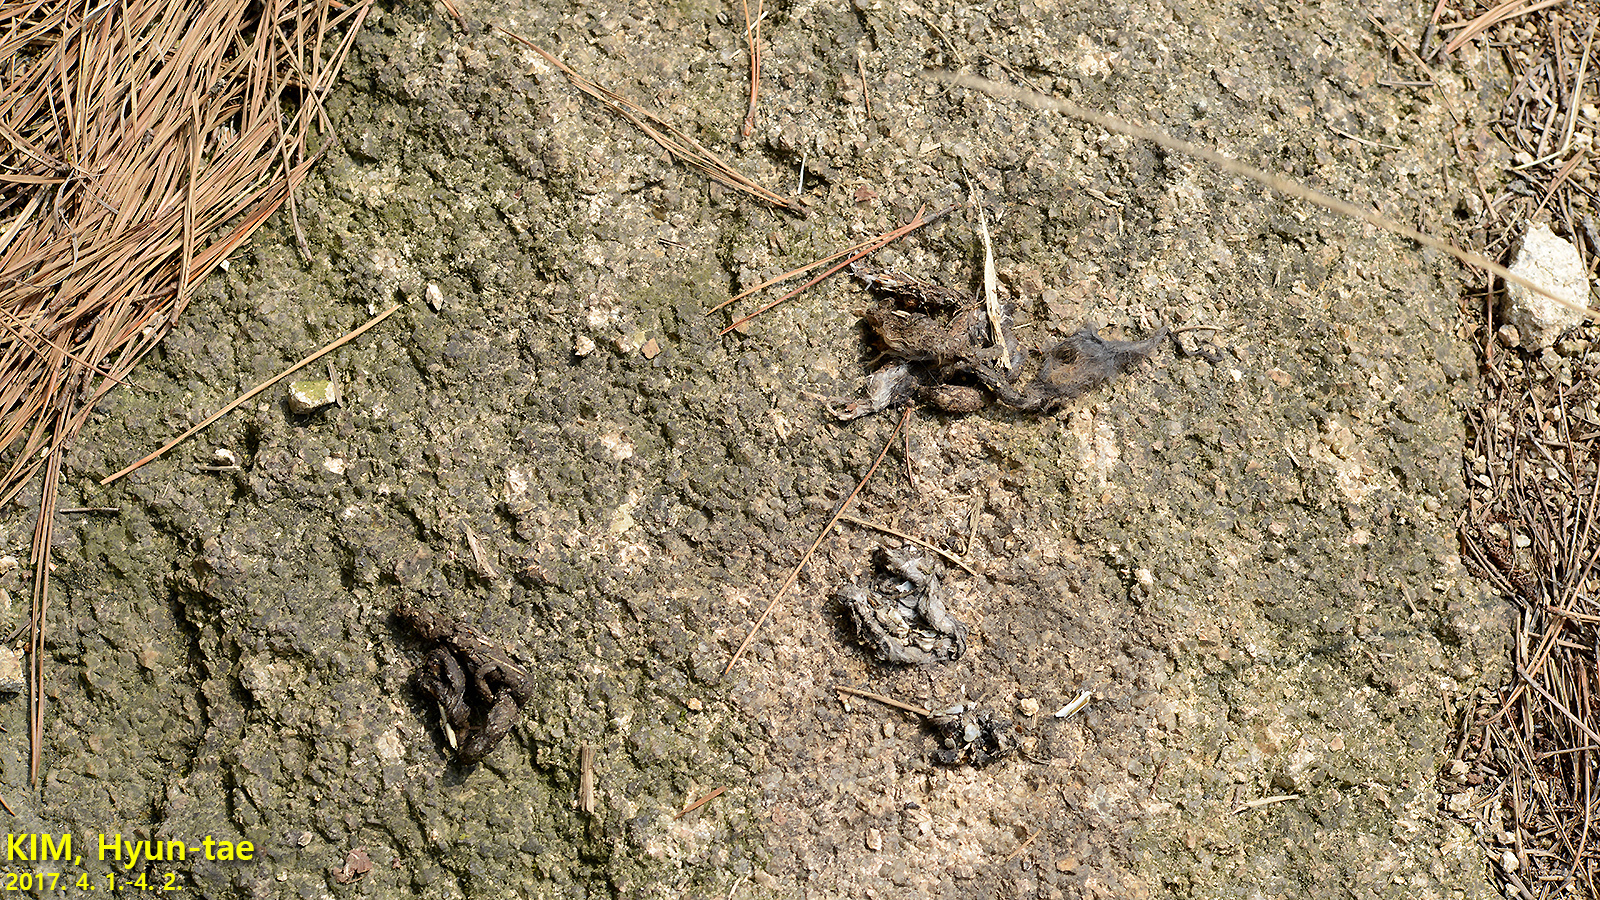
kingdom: Animalia
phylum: Chordata
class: Mammalia
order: Carnivora
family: Mustelidae
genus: Mustela
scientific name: Mustela sibirica
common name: Siberian weasel
